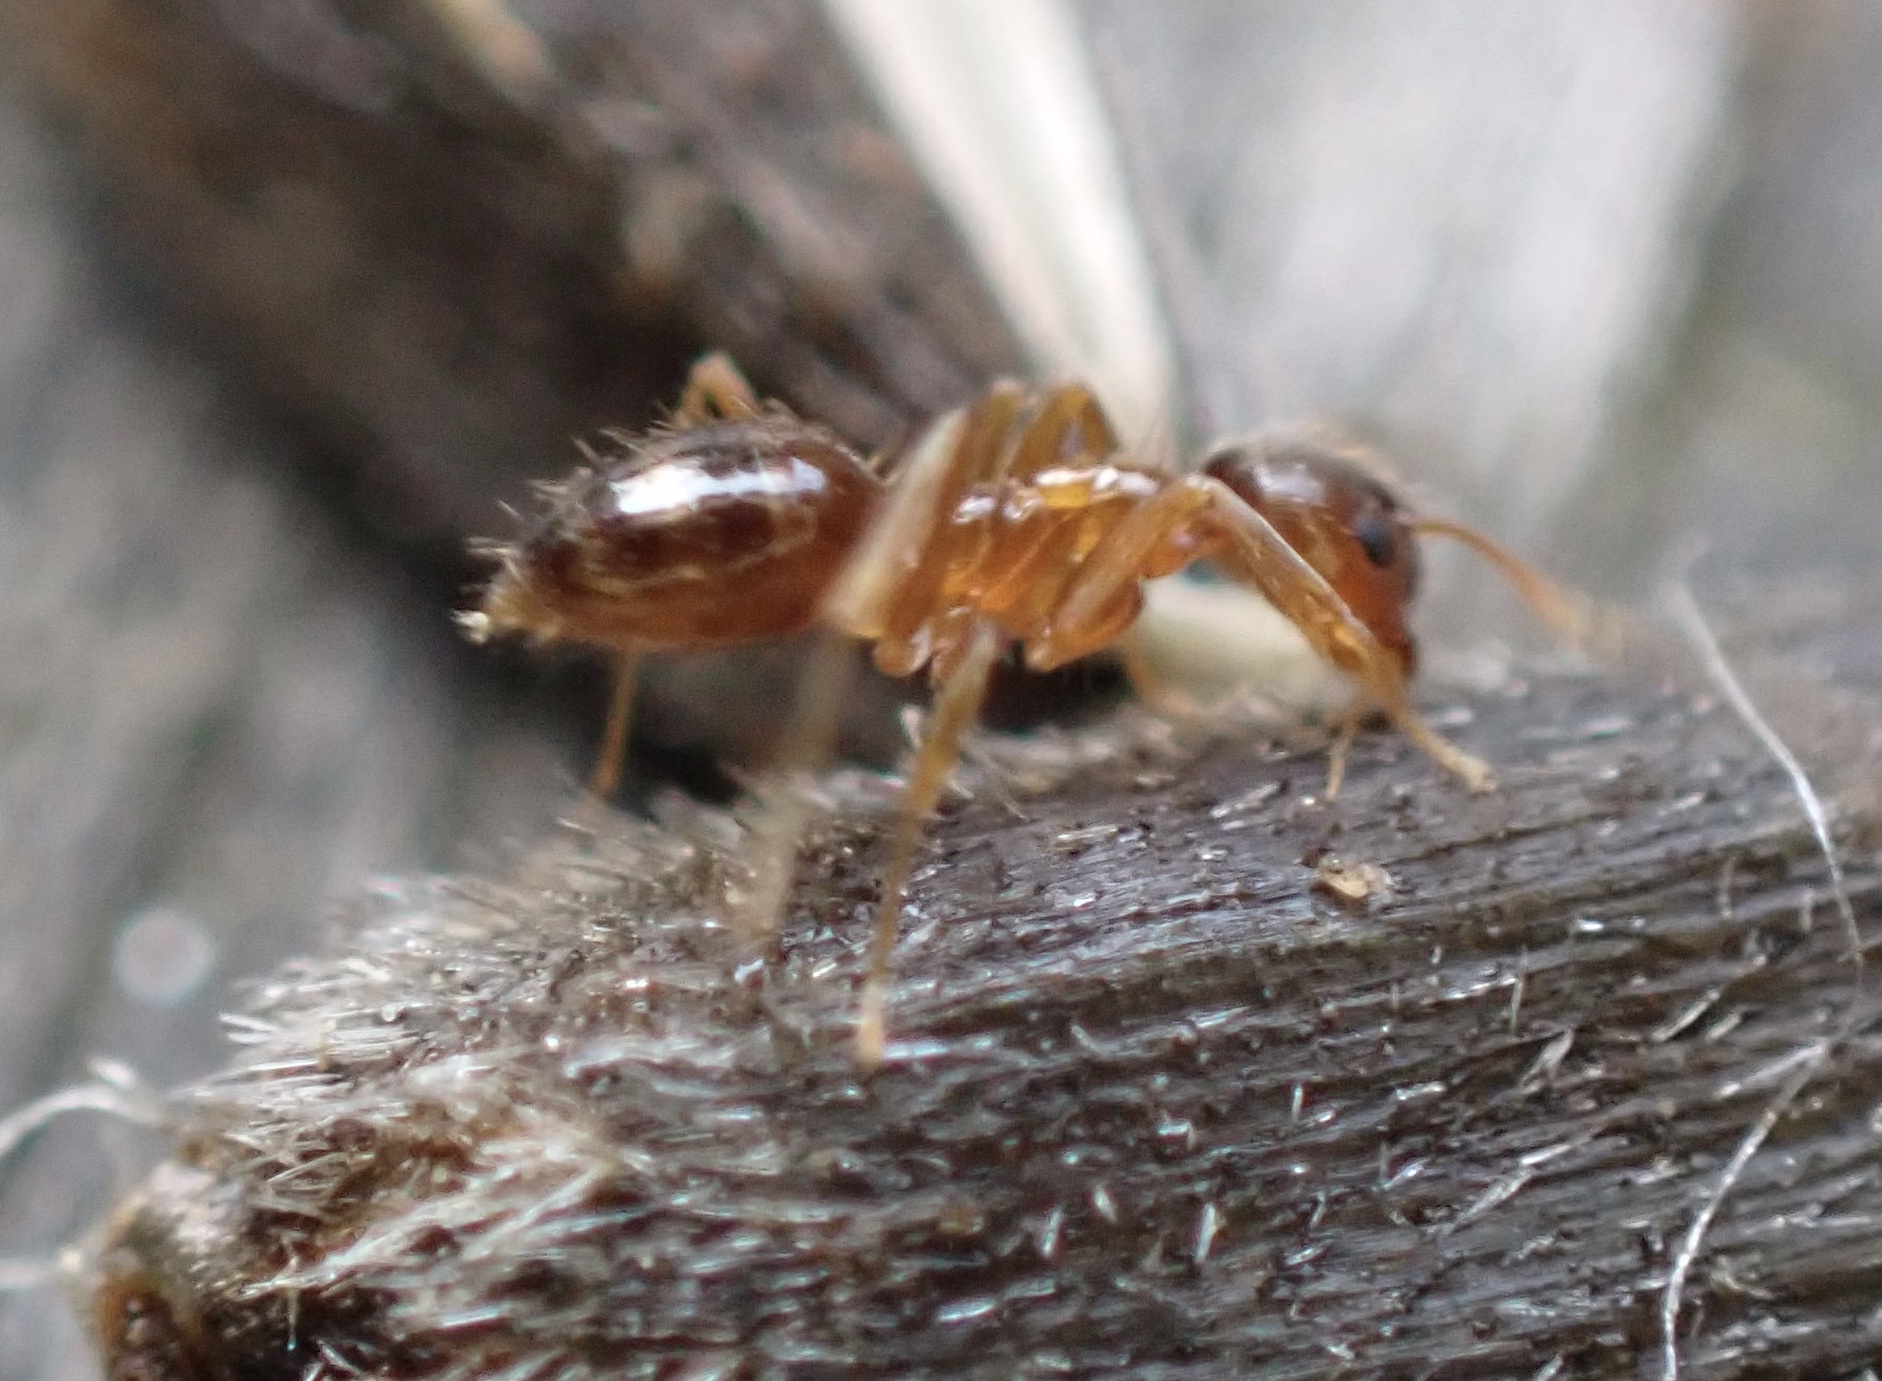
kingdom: Animalia
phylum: Arthropoda
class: Insecta
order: Hymenoptera
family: Formicidae
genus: Paratrechina
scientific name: Paratrechina flavipes
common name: Eastern asian formicine ant
